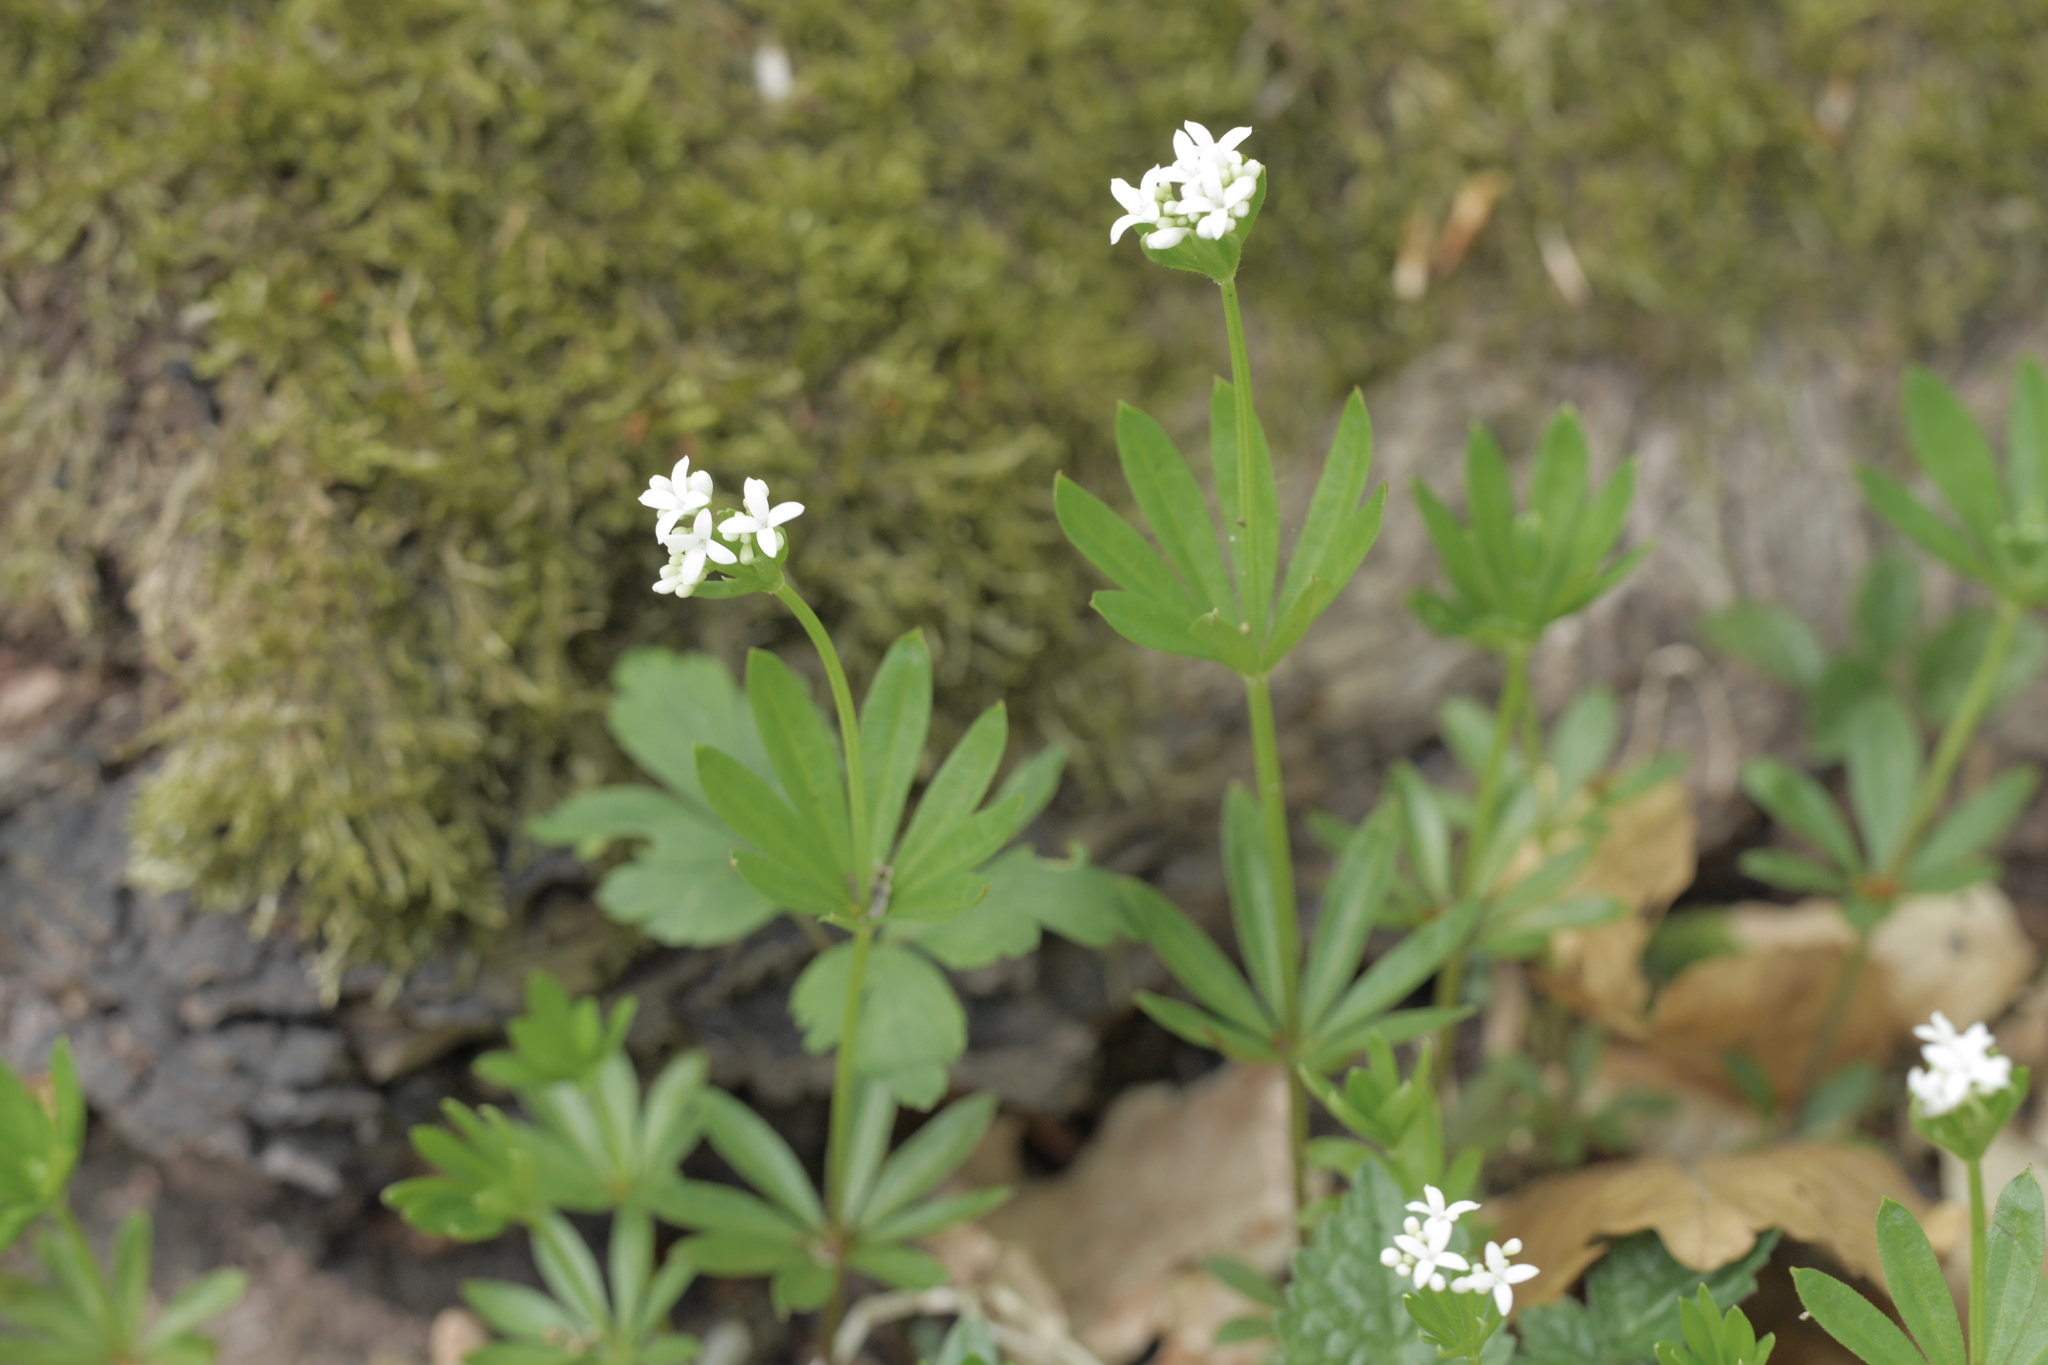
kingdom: Plantae
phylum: Tracheophyta
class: Magnoliopsida
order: Gentianales
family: Rubiaceae
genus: Galium
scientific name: Galium odoratum
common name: Sweet woodruff
